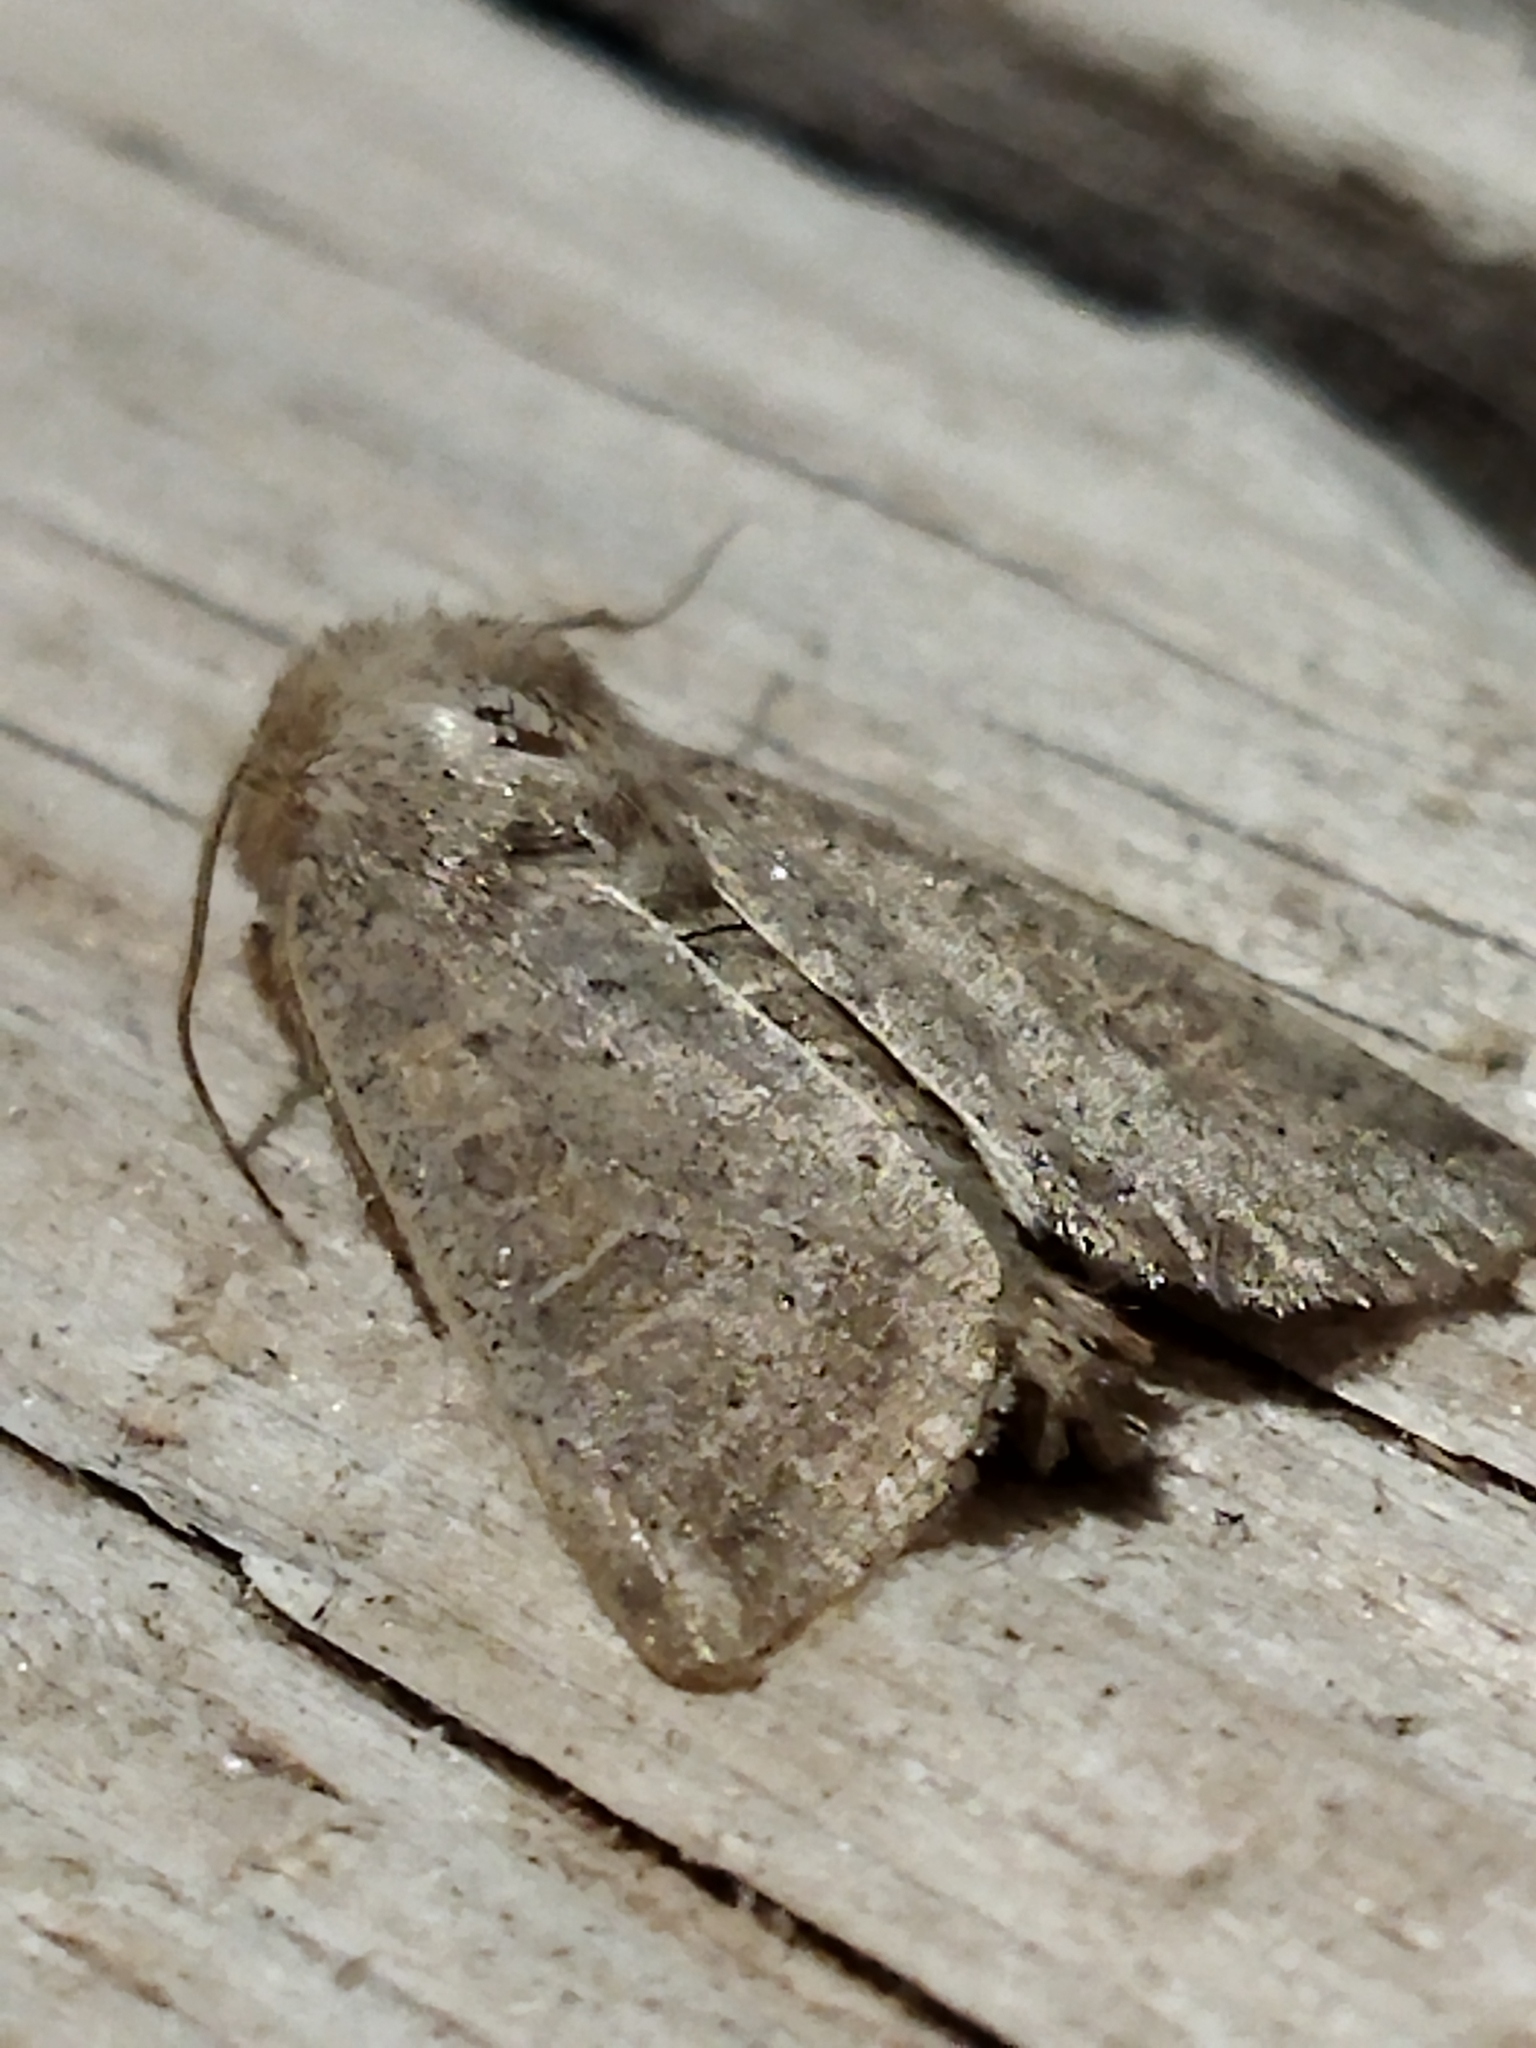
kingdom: Animalia
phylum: Arthropoda
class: Insecta
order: Lepidoptera
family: Noctuidae
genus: Hoplodrina
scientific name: Hoplodrina ambigua
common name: Vine's rustic
